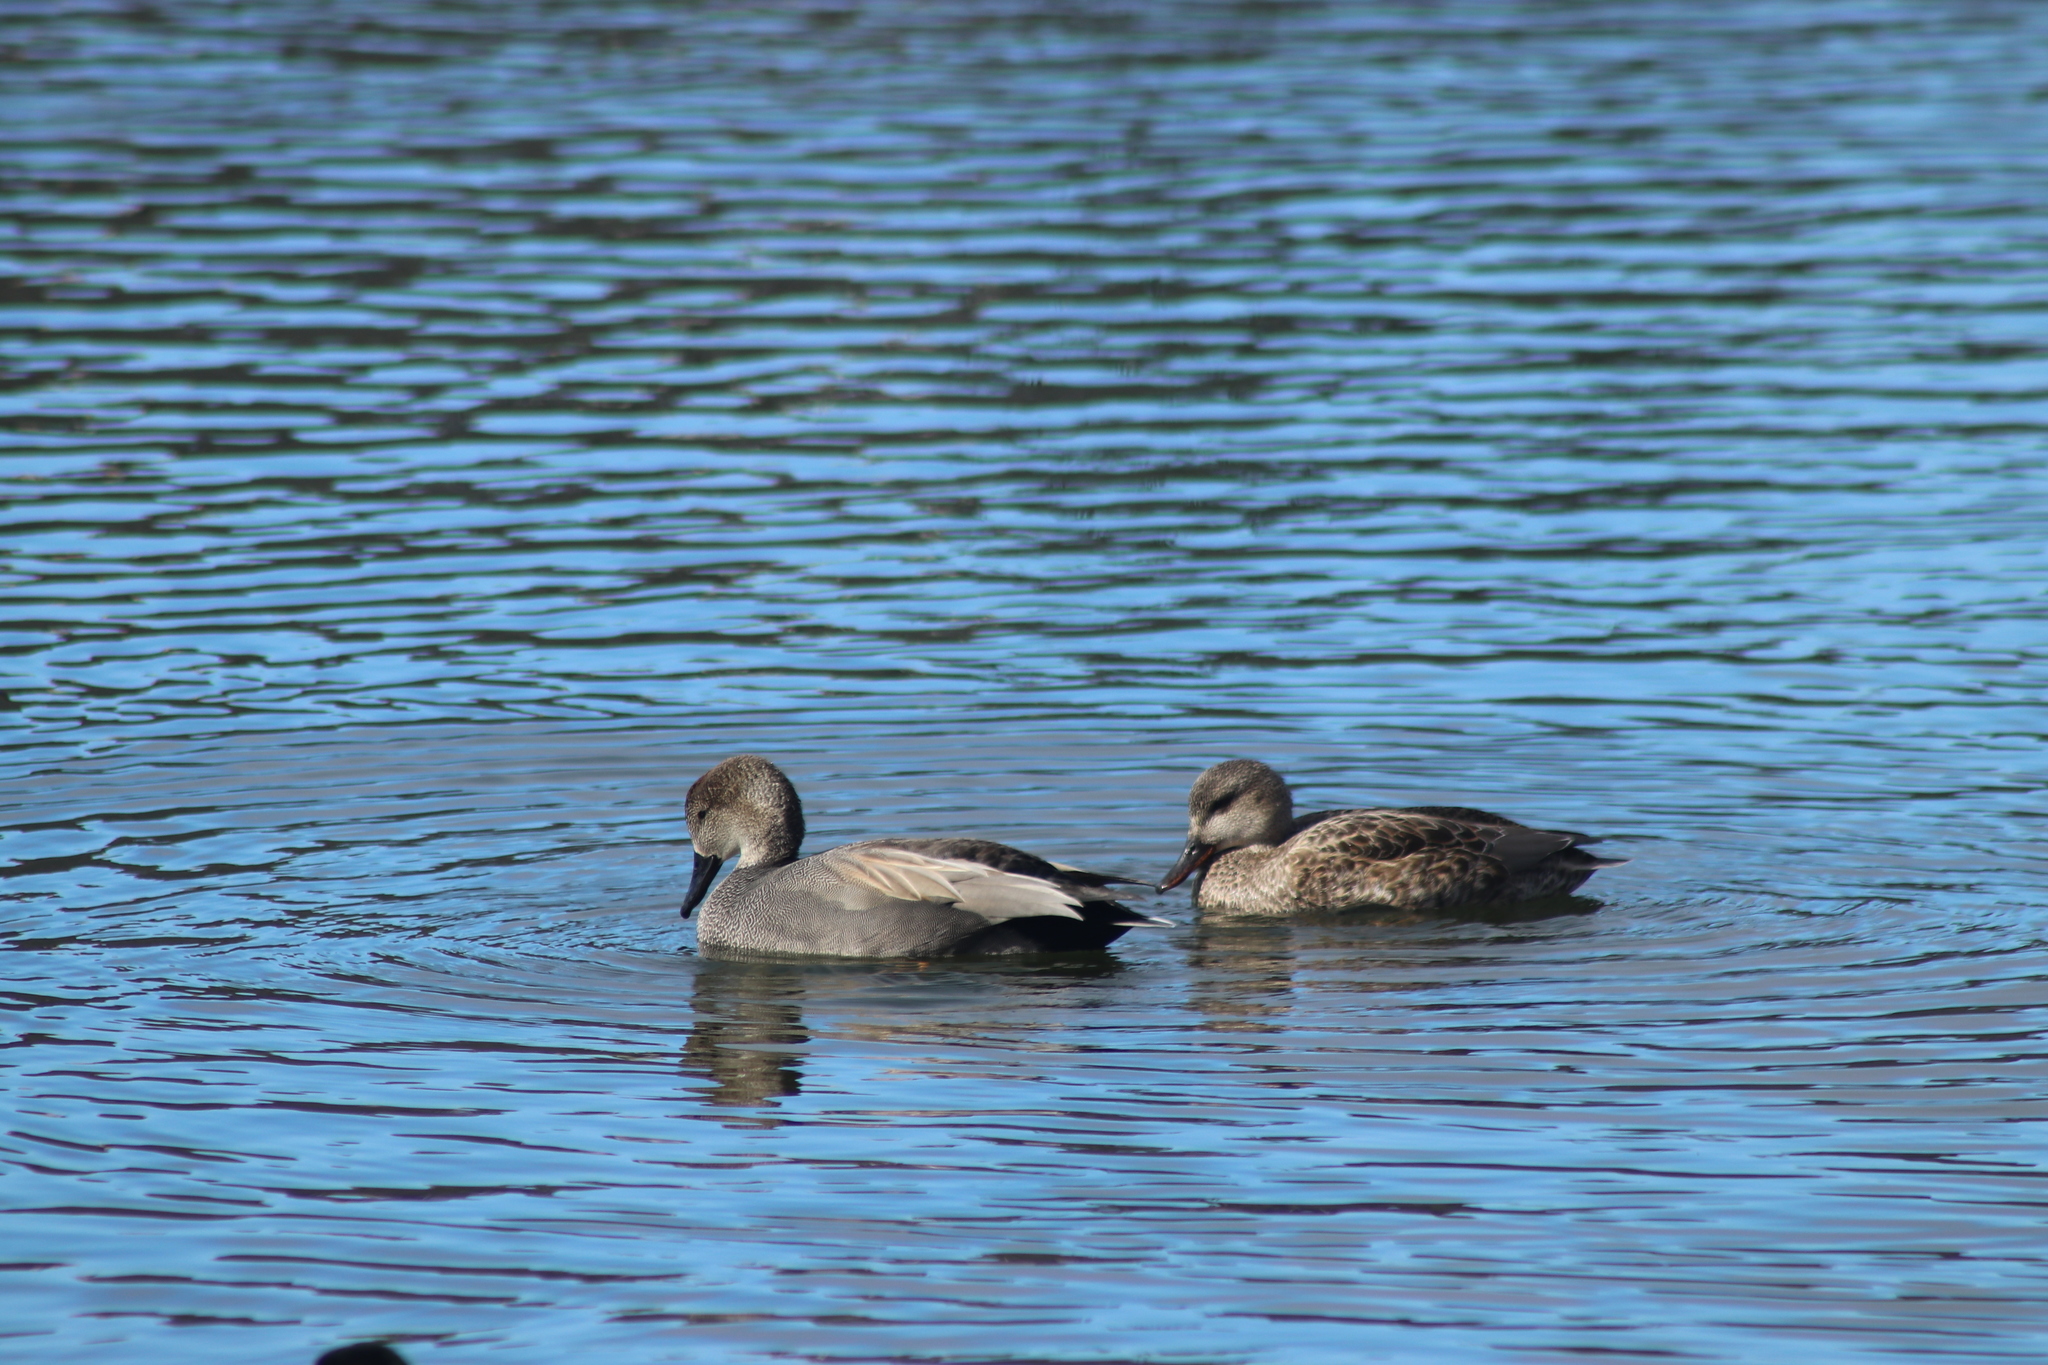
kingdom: Animalia
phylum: Chordata
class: Aves
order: Anseriformes
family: Anatidae
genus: Mareca
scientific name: Mareca strepera
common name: Gadwall
